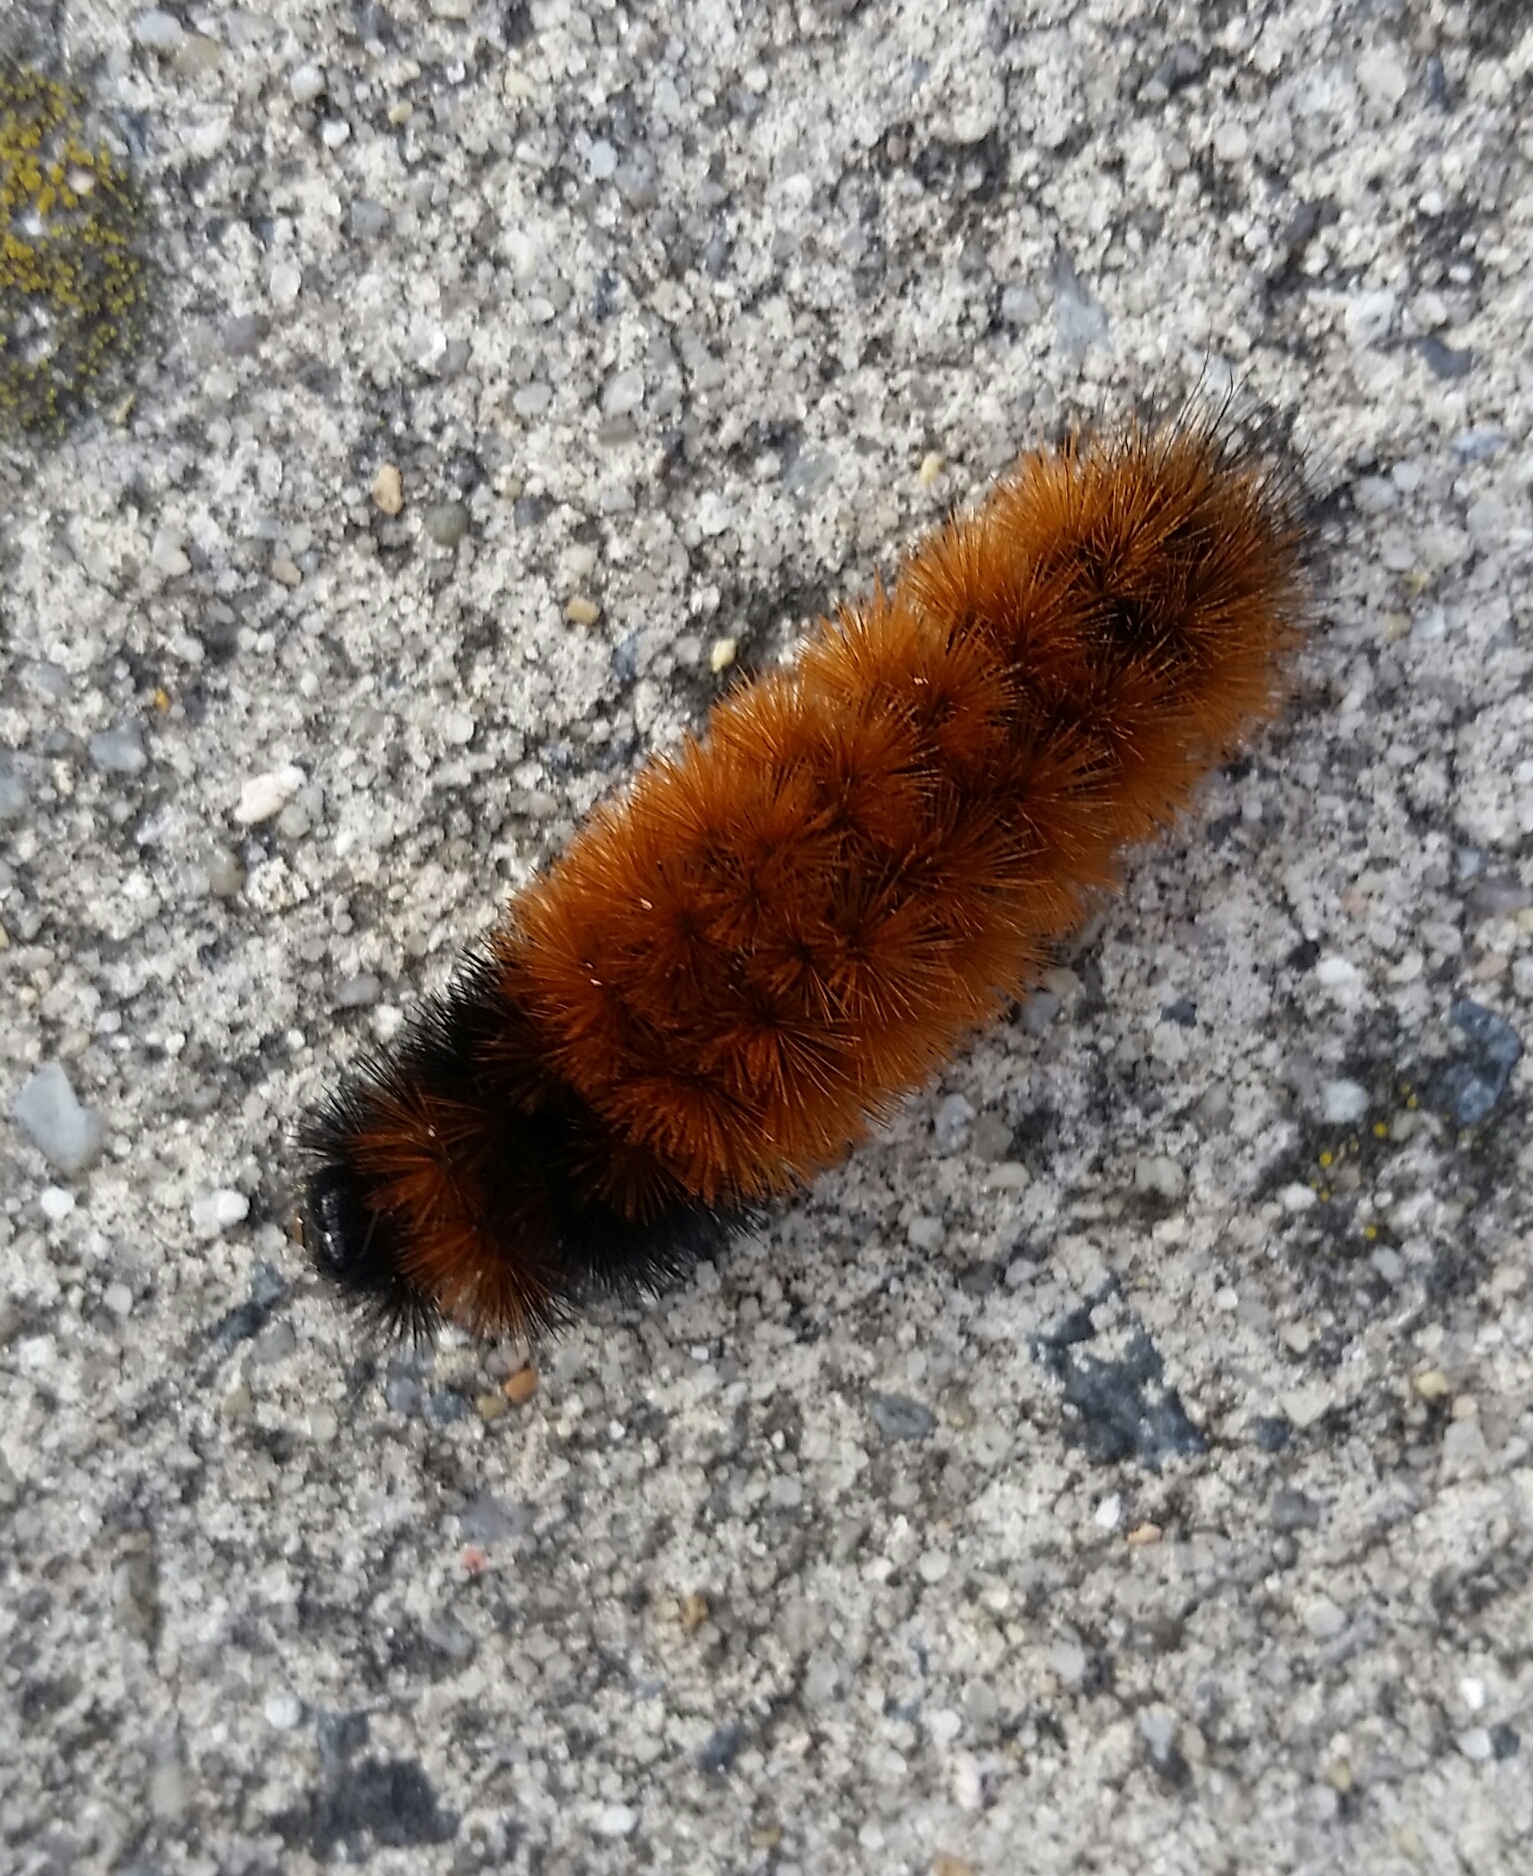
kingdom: Animalia
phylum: Arthropoda
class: Insecta
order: Lepidoptera
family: Erebidae
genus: Pyrrharctia
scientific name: Pyrrharctia isabella
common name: Isabella tiger moth
